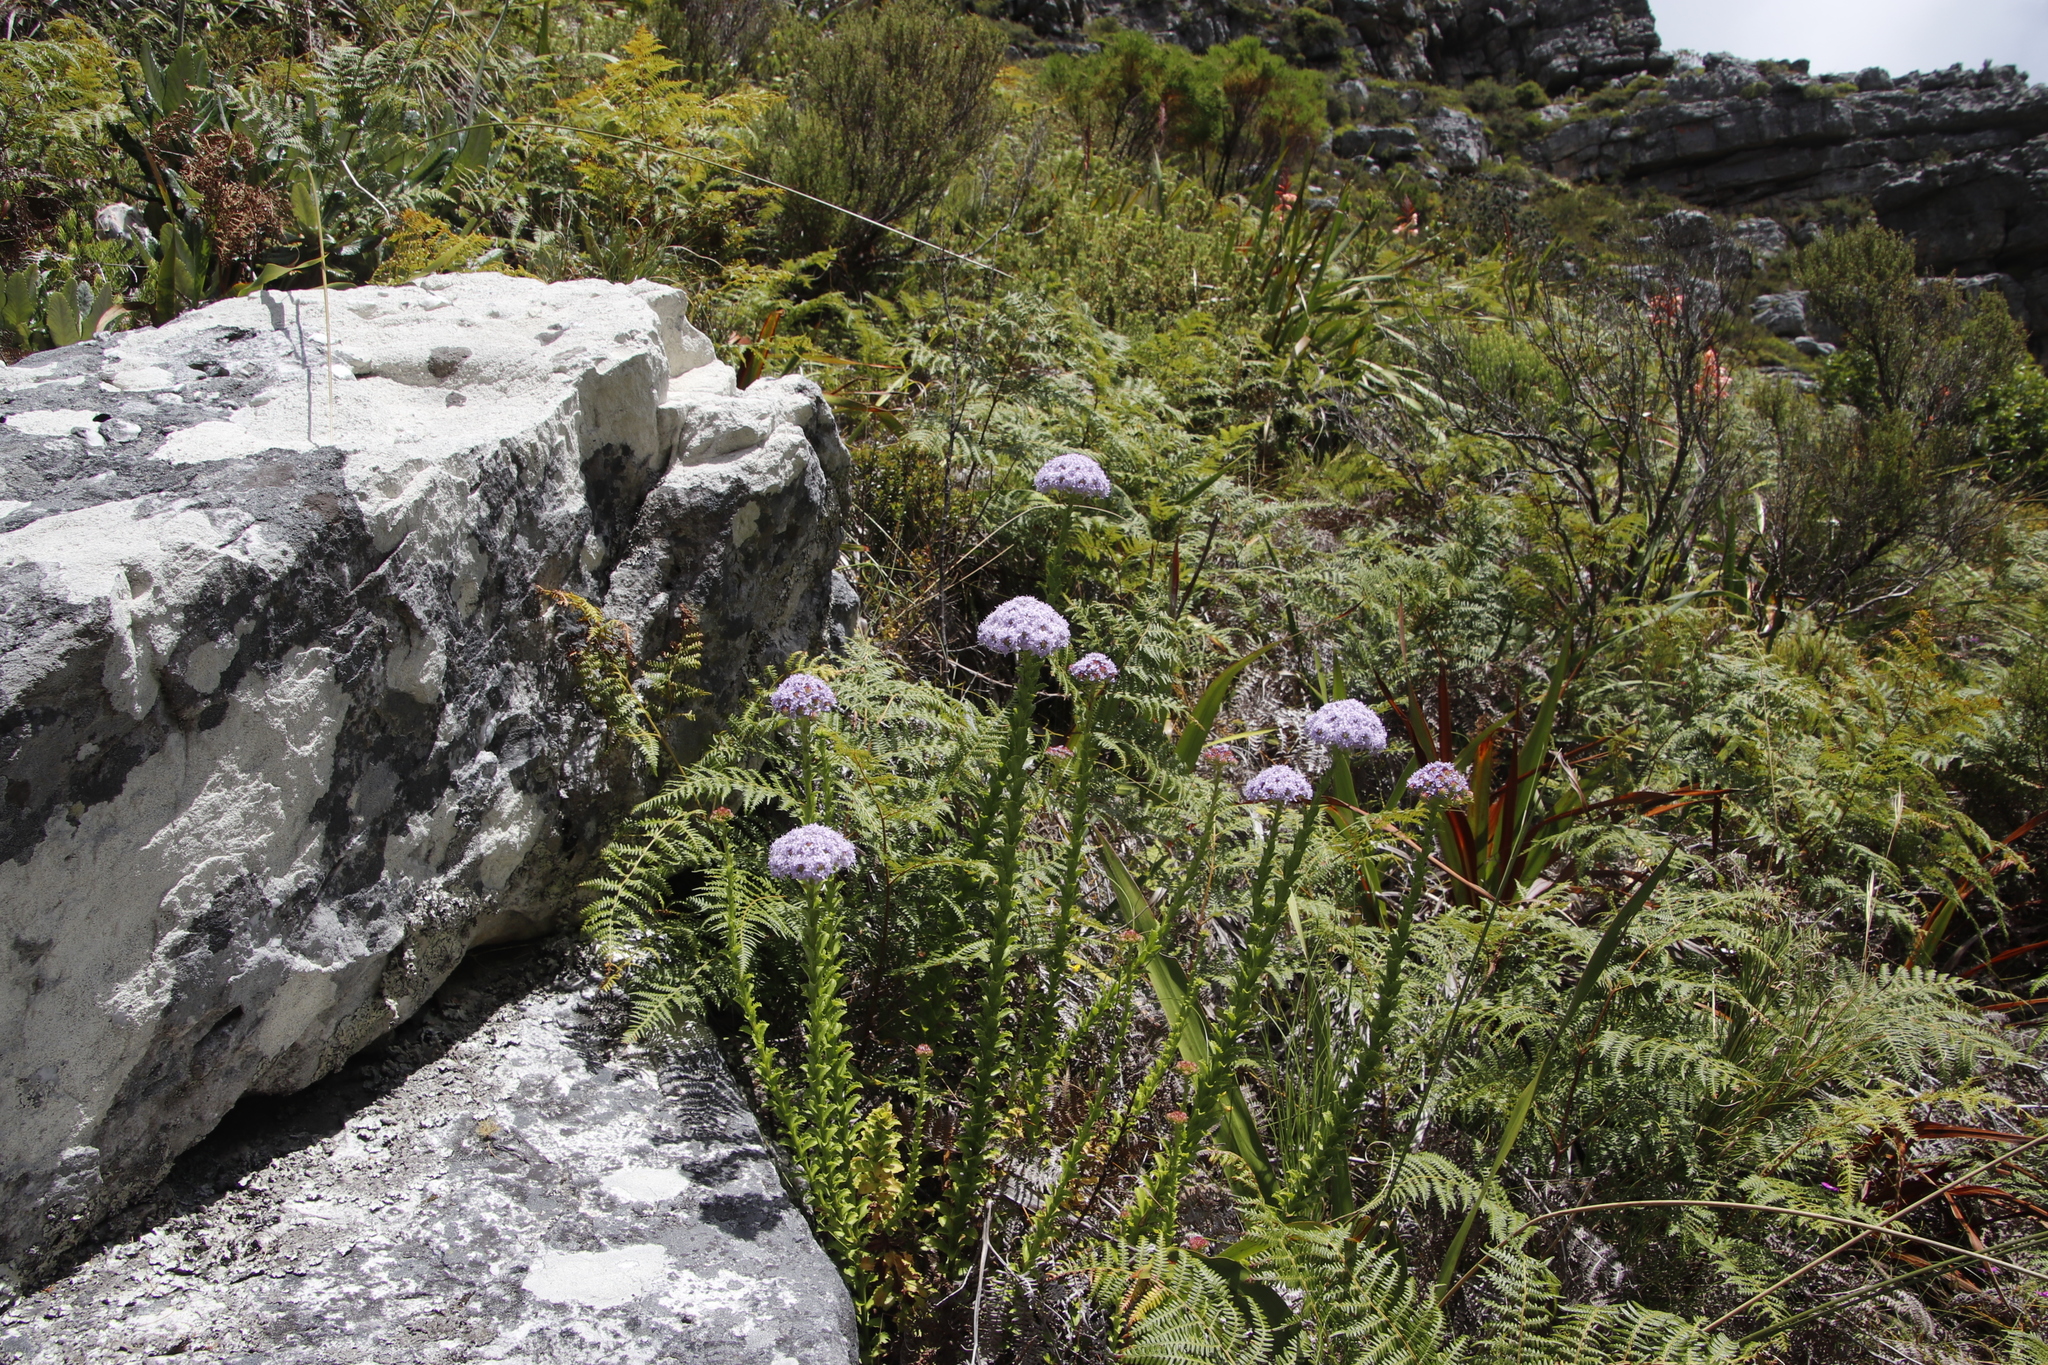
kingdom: Plantae
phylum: Tracheophyta
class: Magnoliopsida
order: Lamiales
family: Scrophulariaceae
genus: Pseudoselago
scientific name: Pseudoselago serrata
